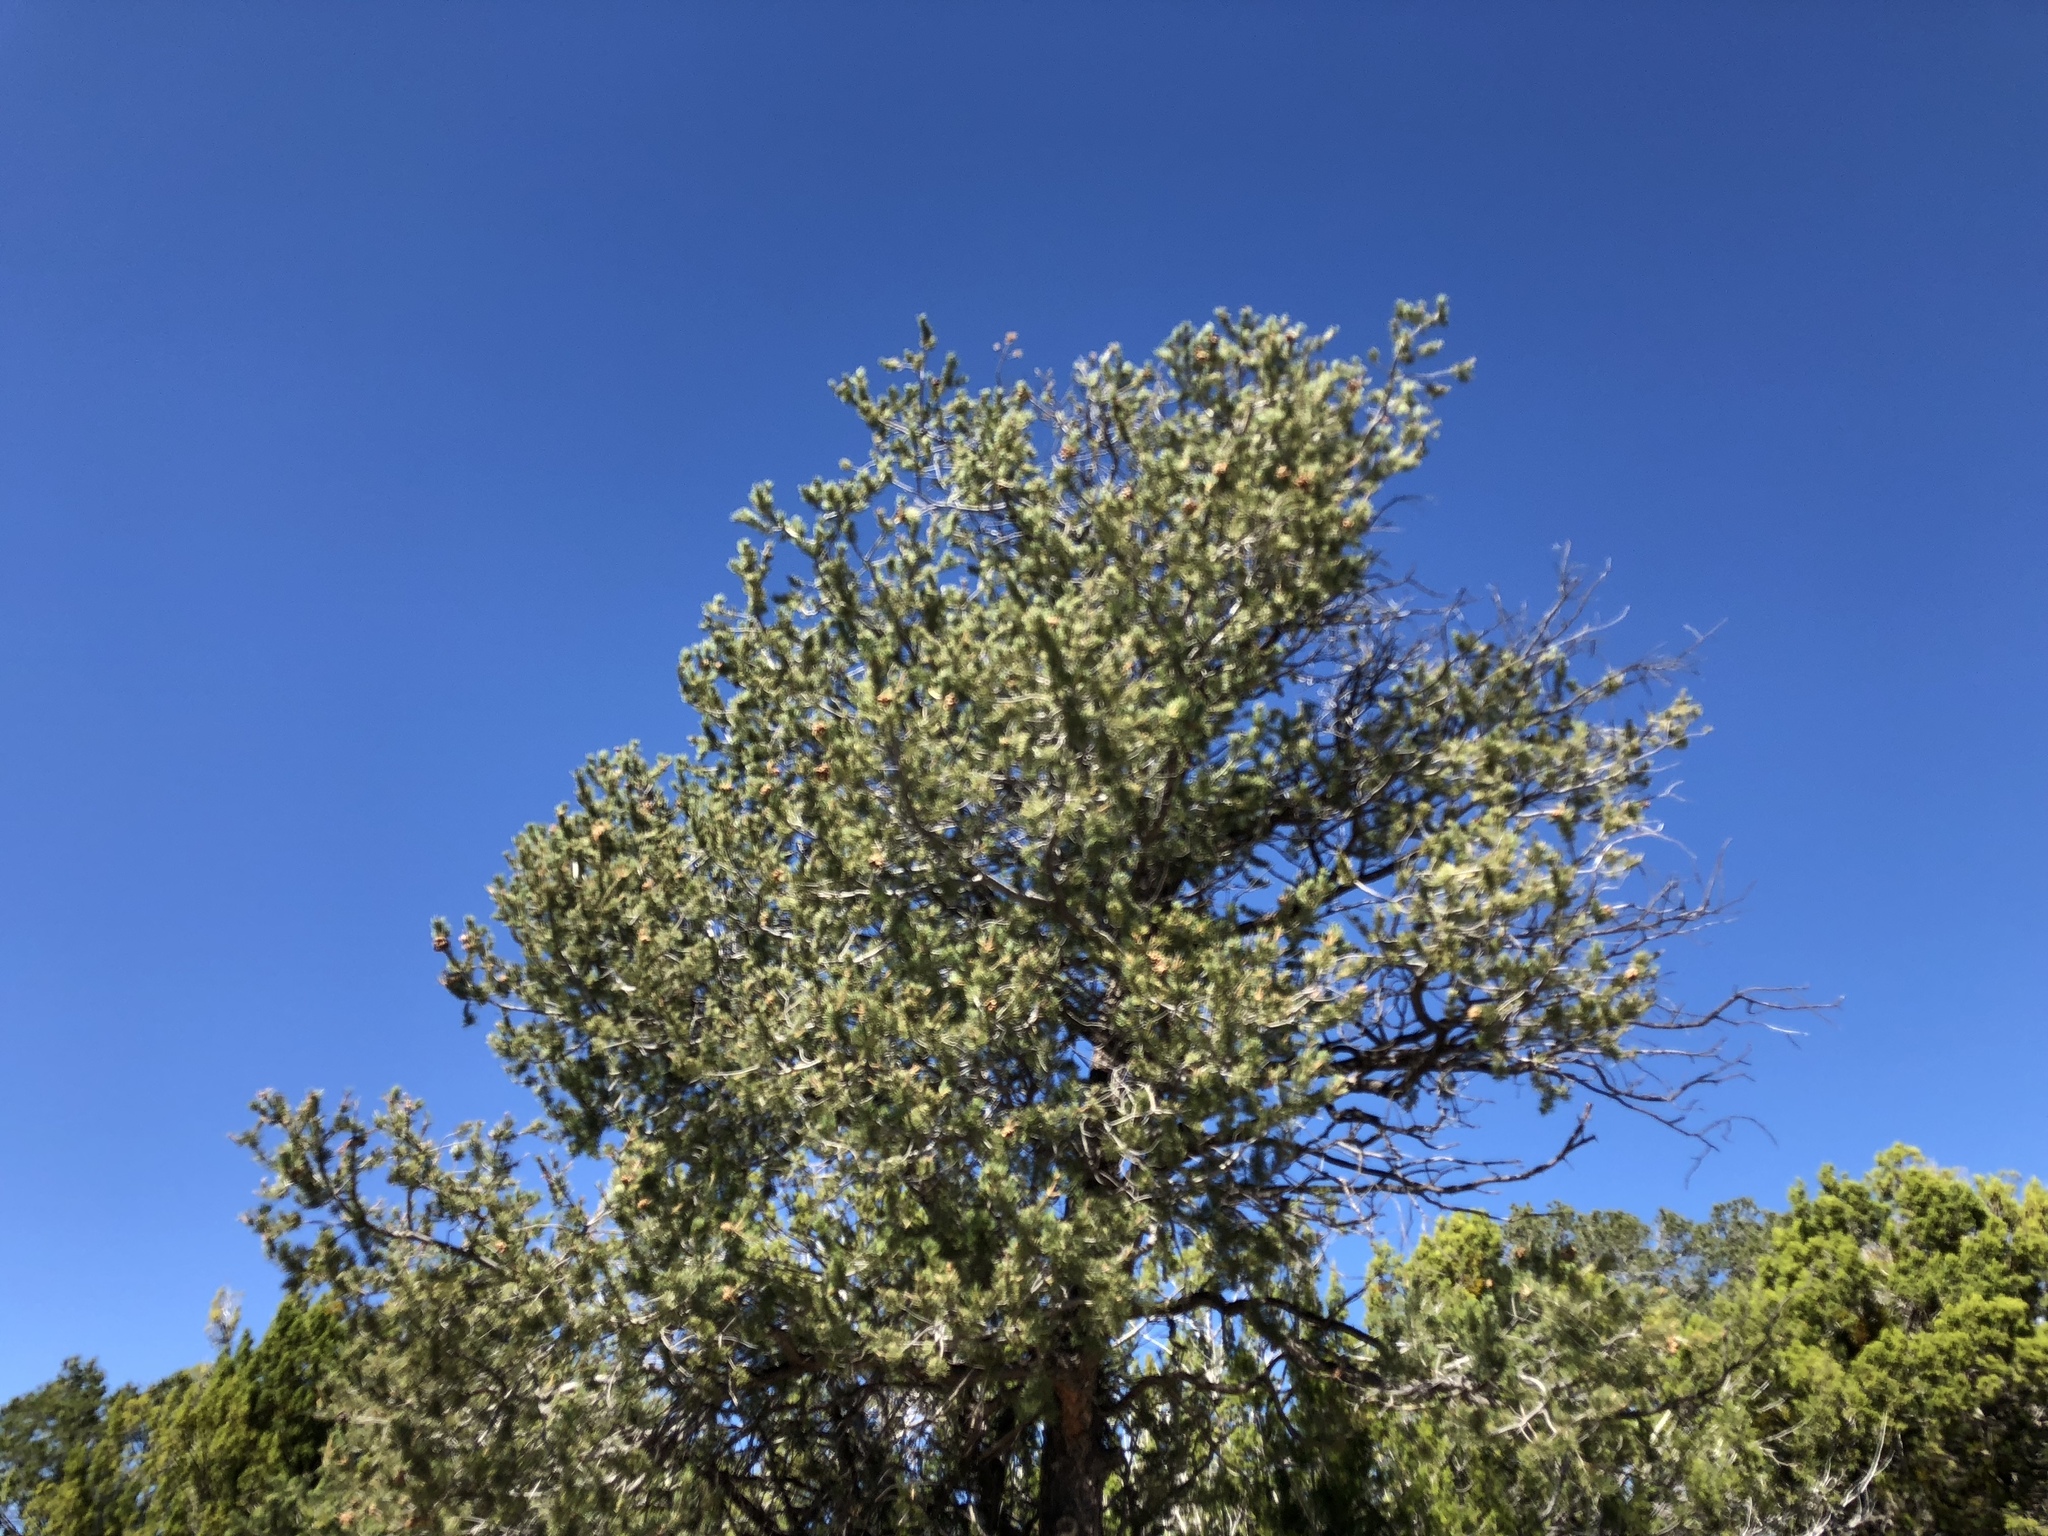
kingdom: Plantae
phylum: Tracheophyta
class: Pinopsida
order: Pinales
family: Pinaceae
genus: Pinus
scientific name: Pinus edulis
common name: Colorado pinyon
